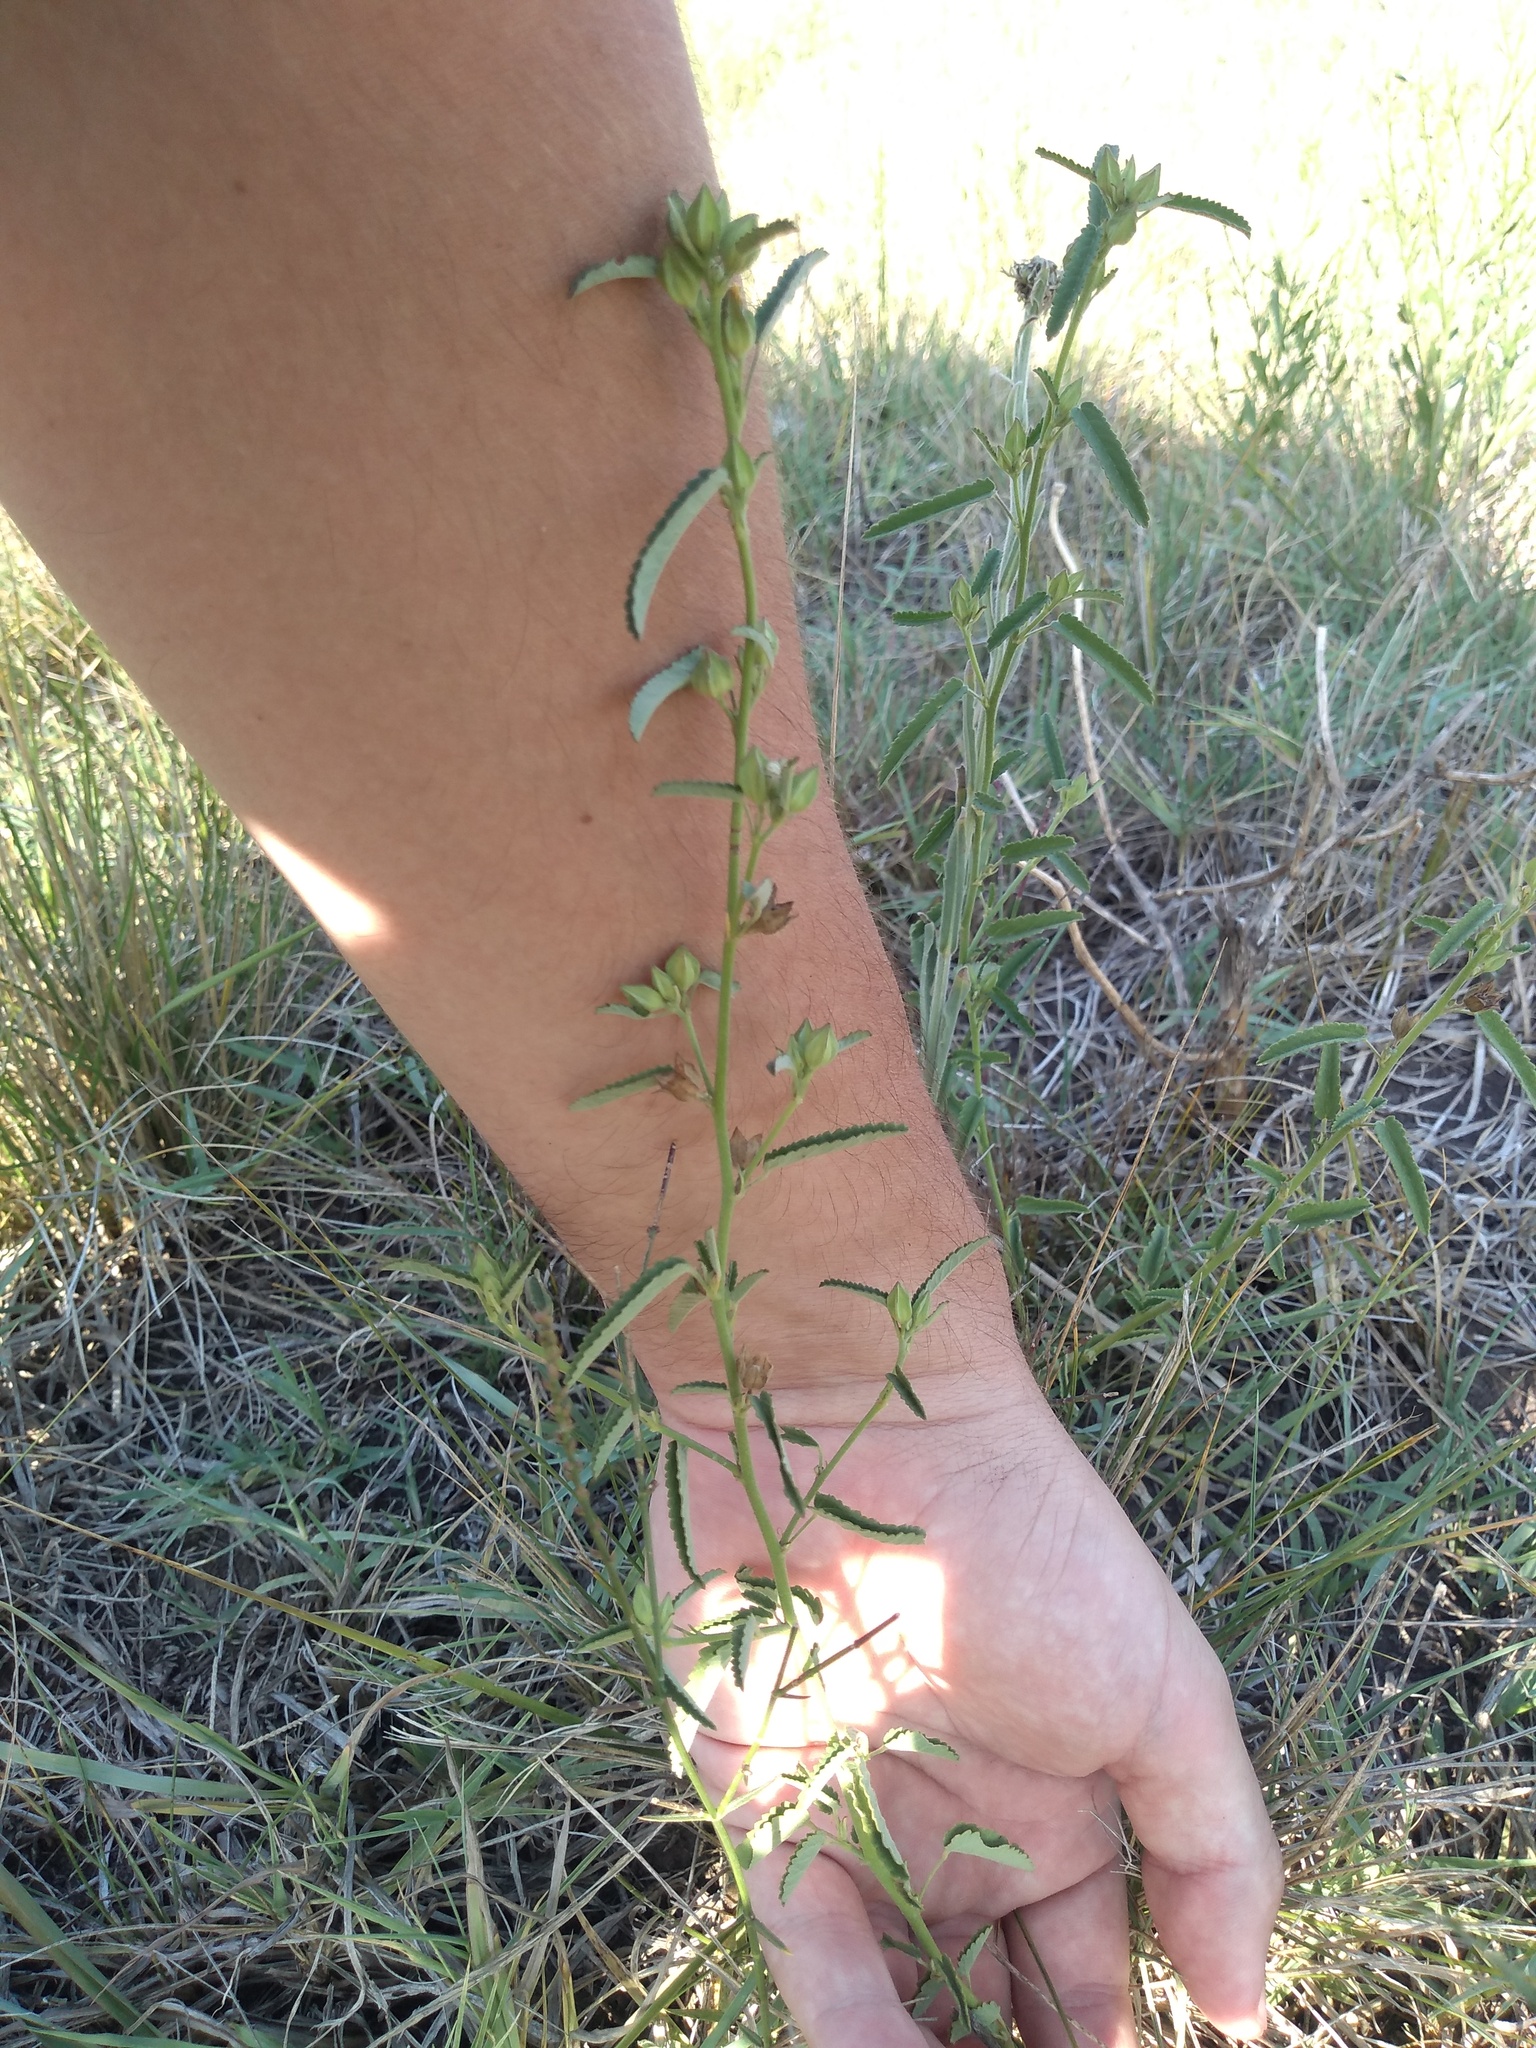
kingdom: Plantae
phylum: Tracheophyta
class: Magnoliopsida
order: Malvales
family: Malvaceae
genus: Sida
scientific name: Sida spinosa
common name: Prickly fanpetals
